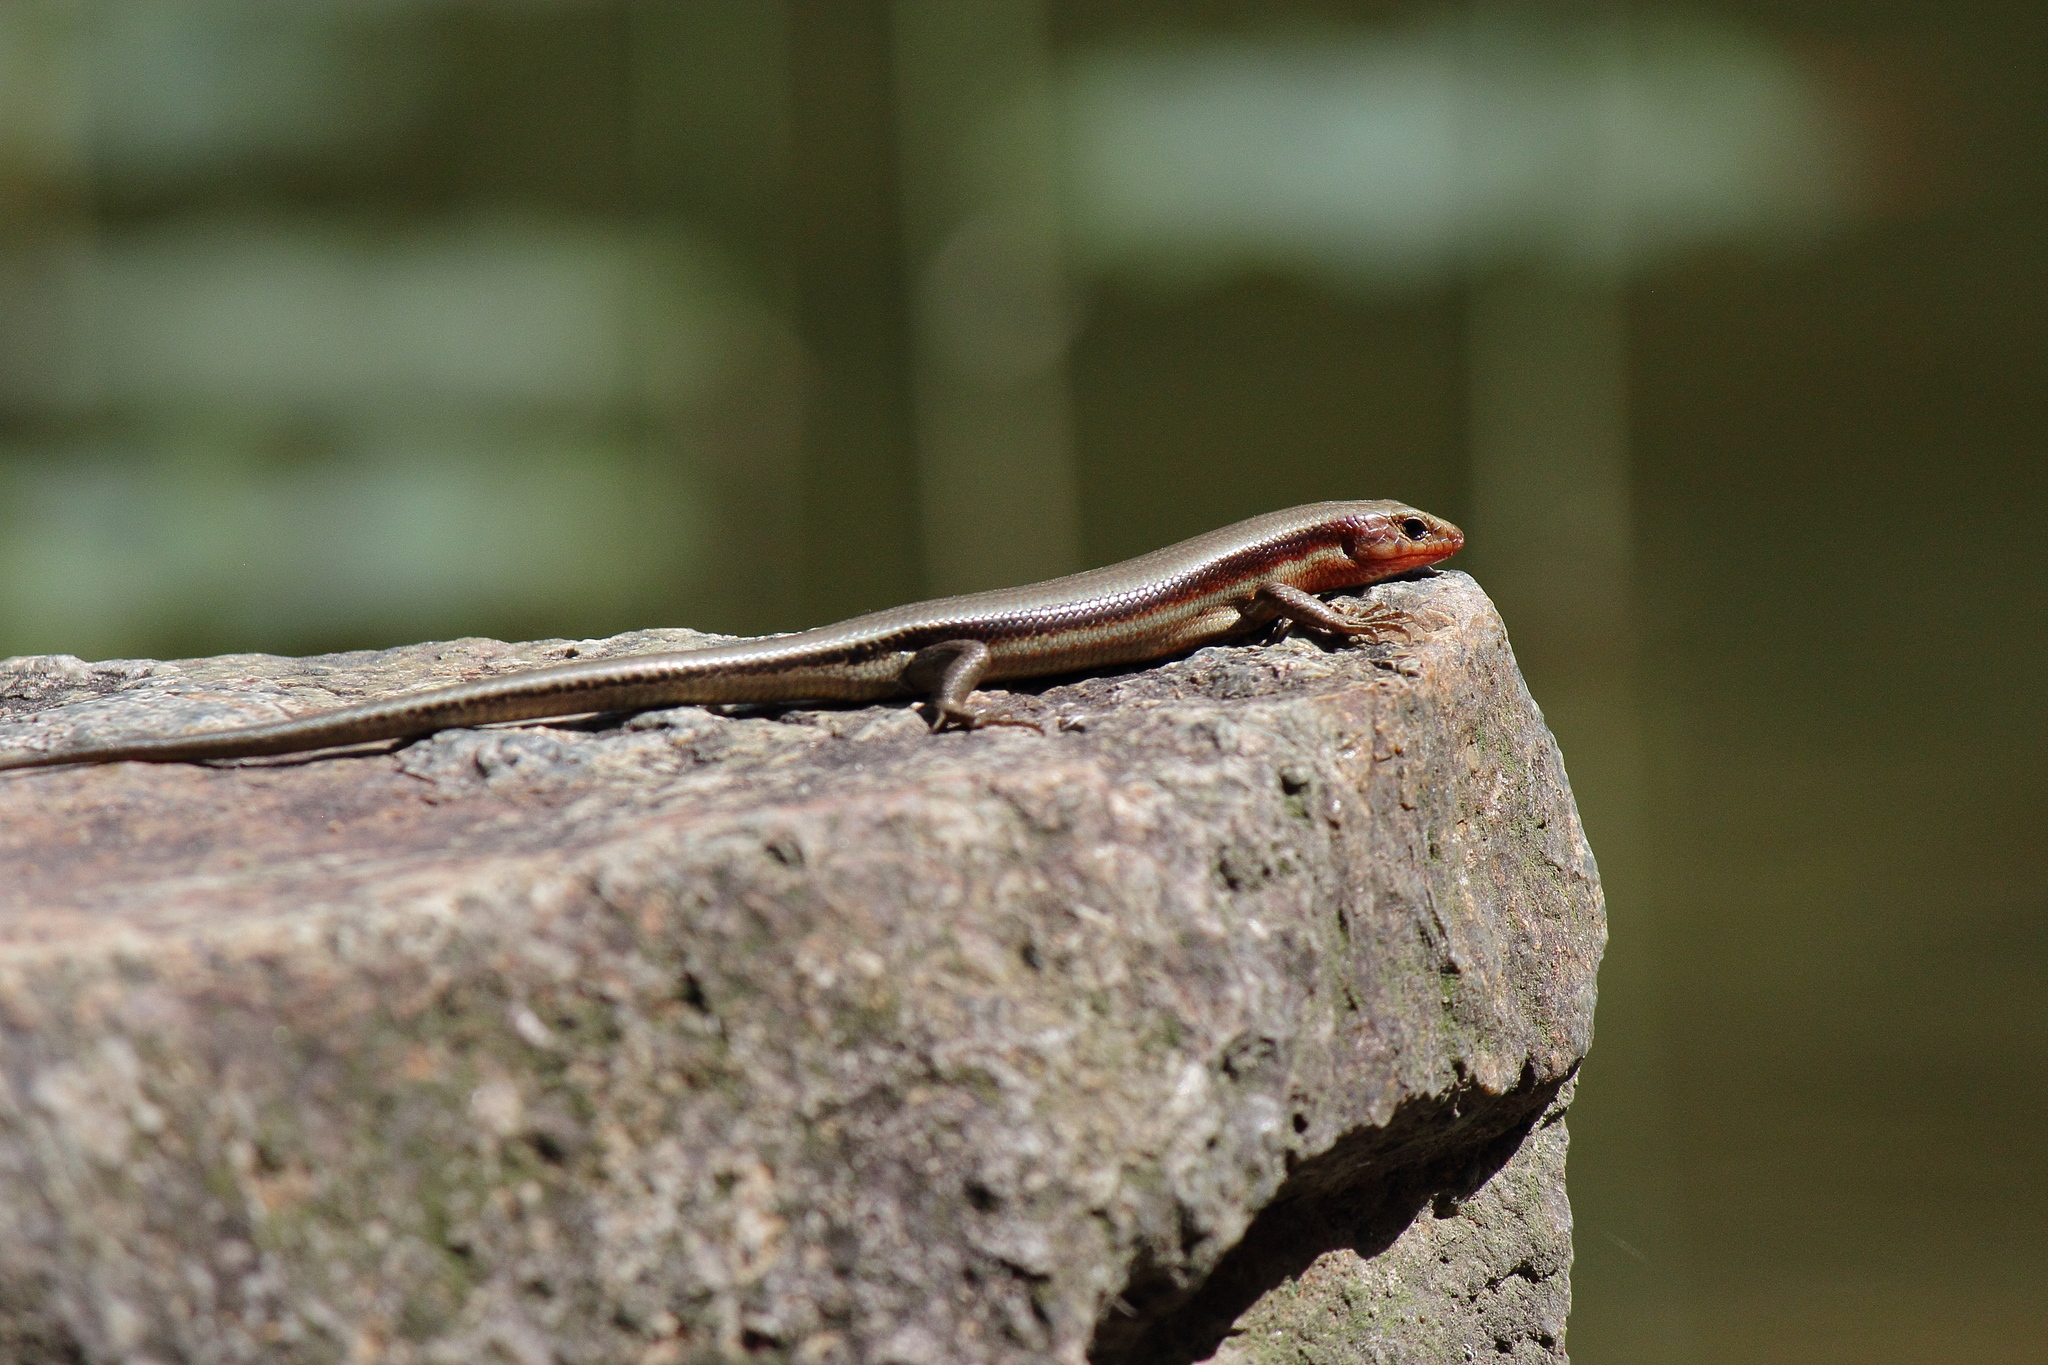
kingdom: Animalia
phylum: Chordata
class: Squamata
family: Scincidae
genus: Plestiodon
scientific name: Plestiodon japonicus
